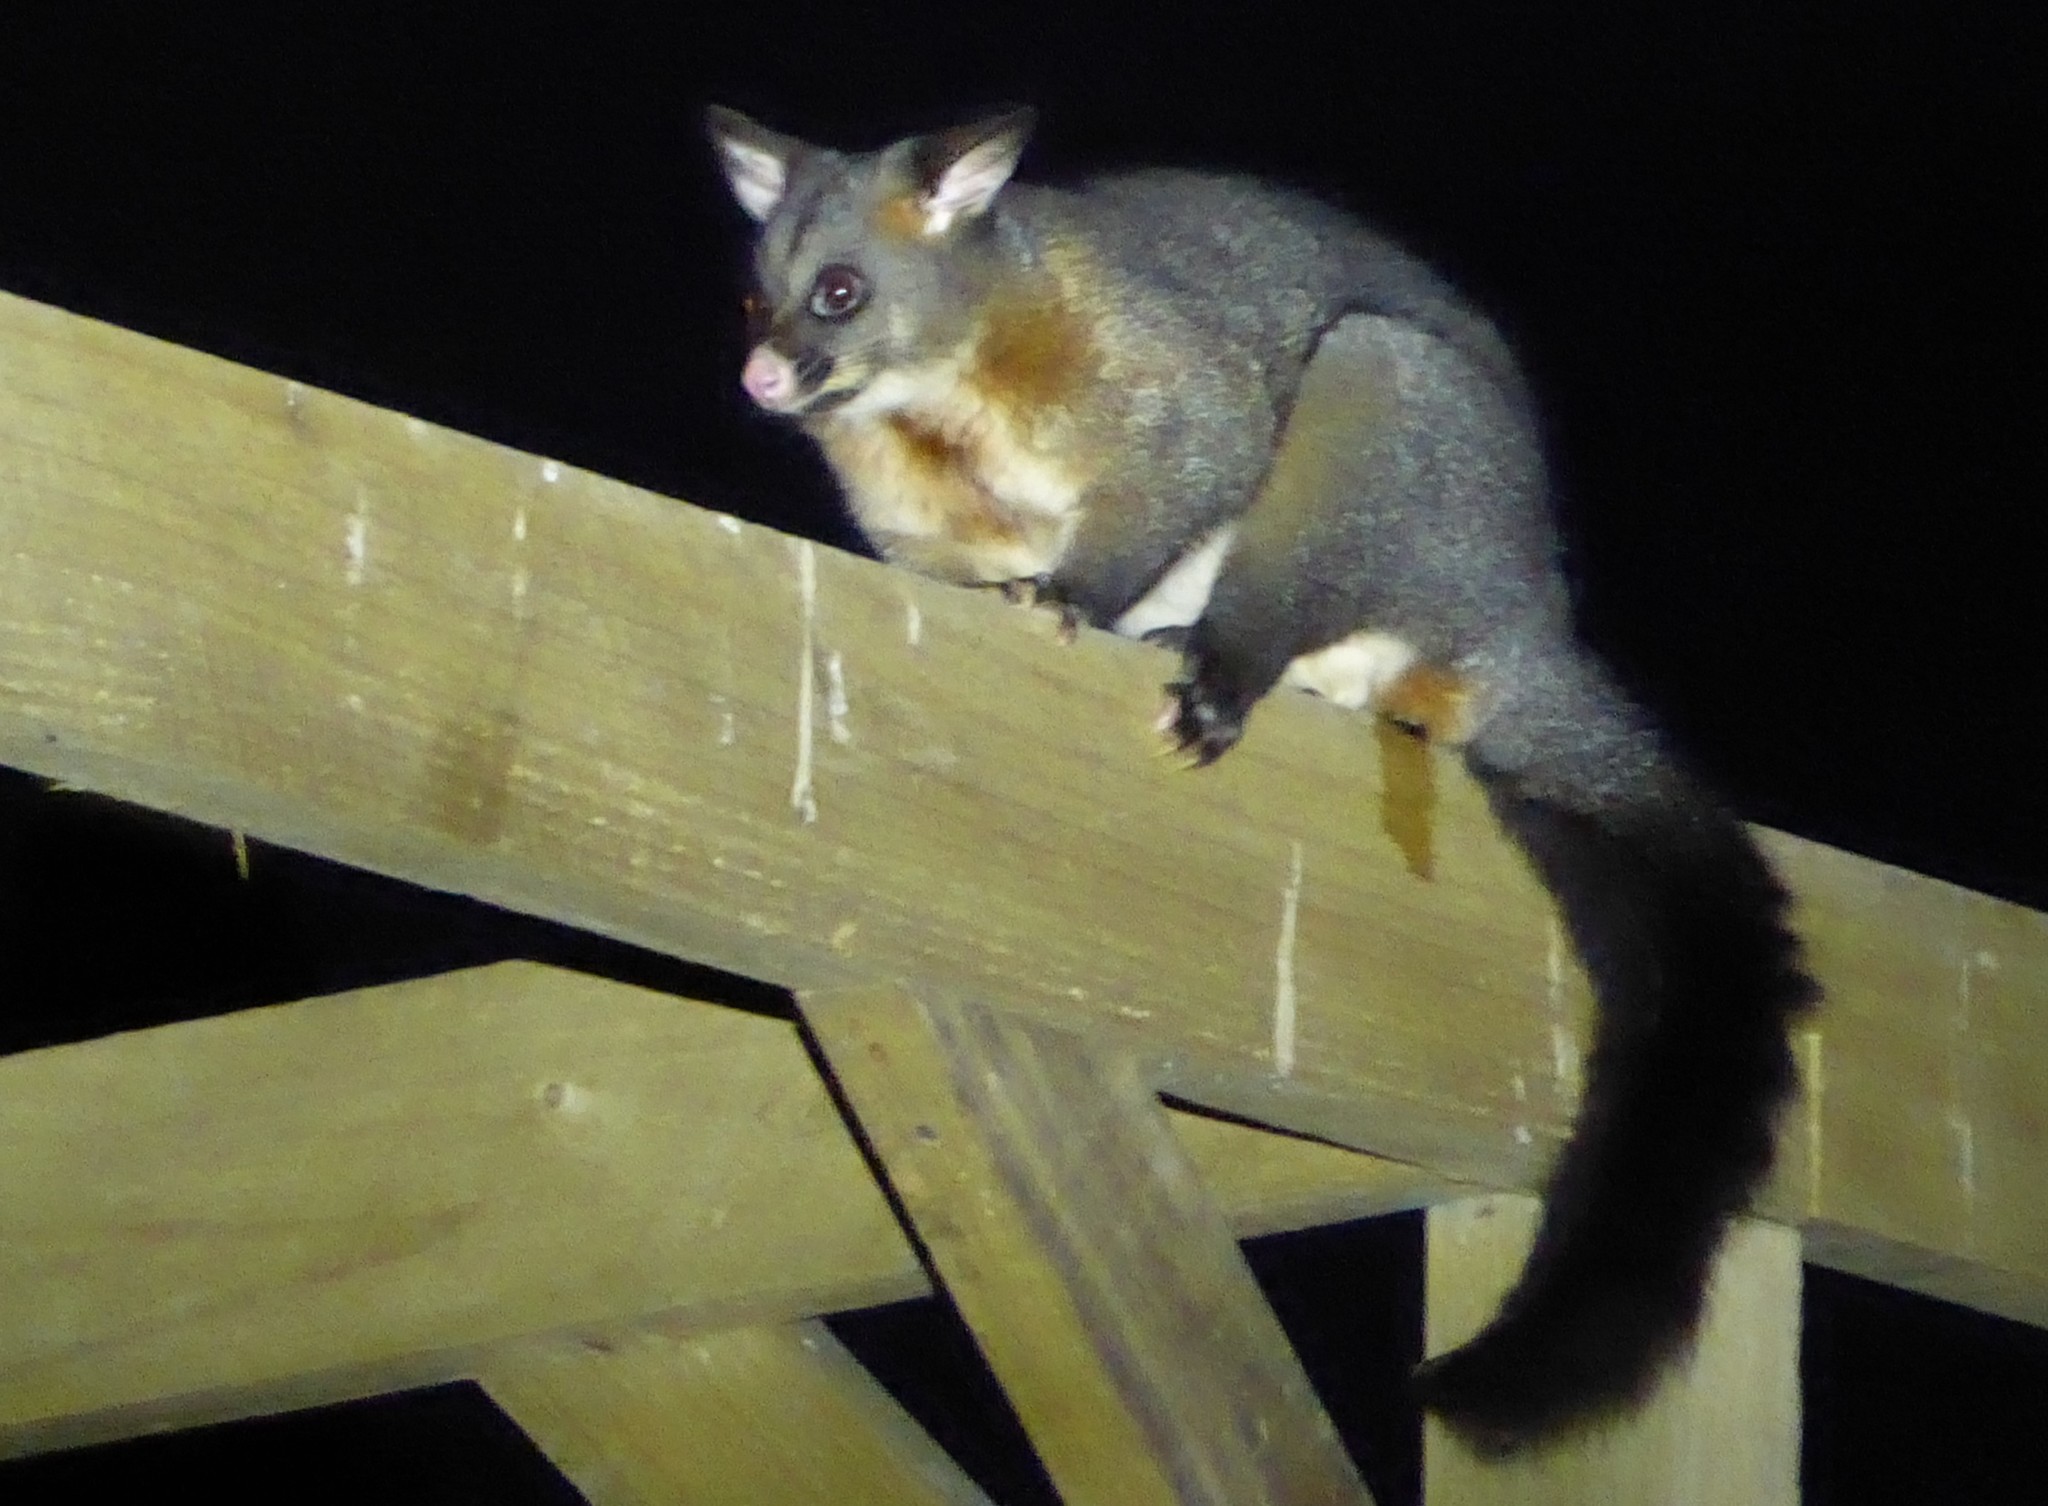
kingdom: Animalia
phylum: Chordata
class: Mammalia
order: Diprotodontia
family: Phalangeridae
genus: Trichosurus
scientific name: Trichosurus vulpecula
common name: Common brushtail
